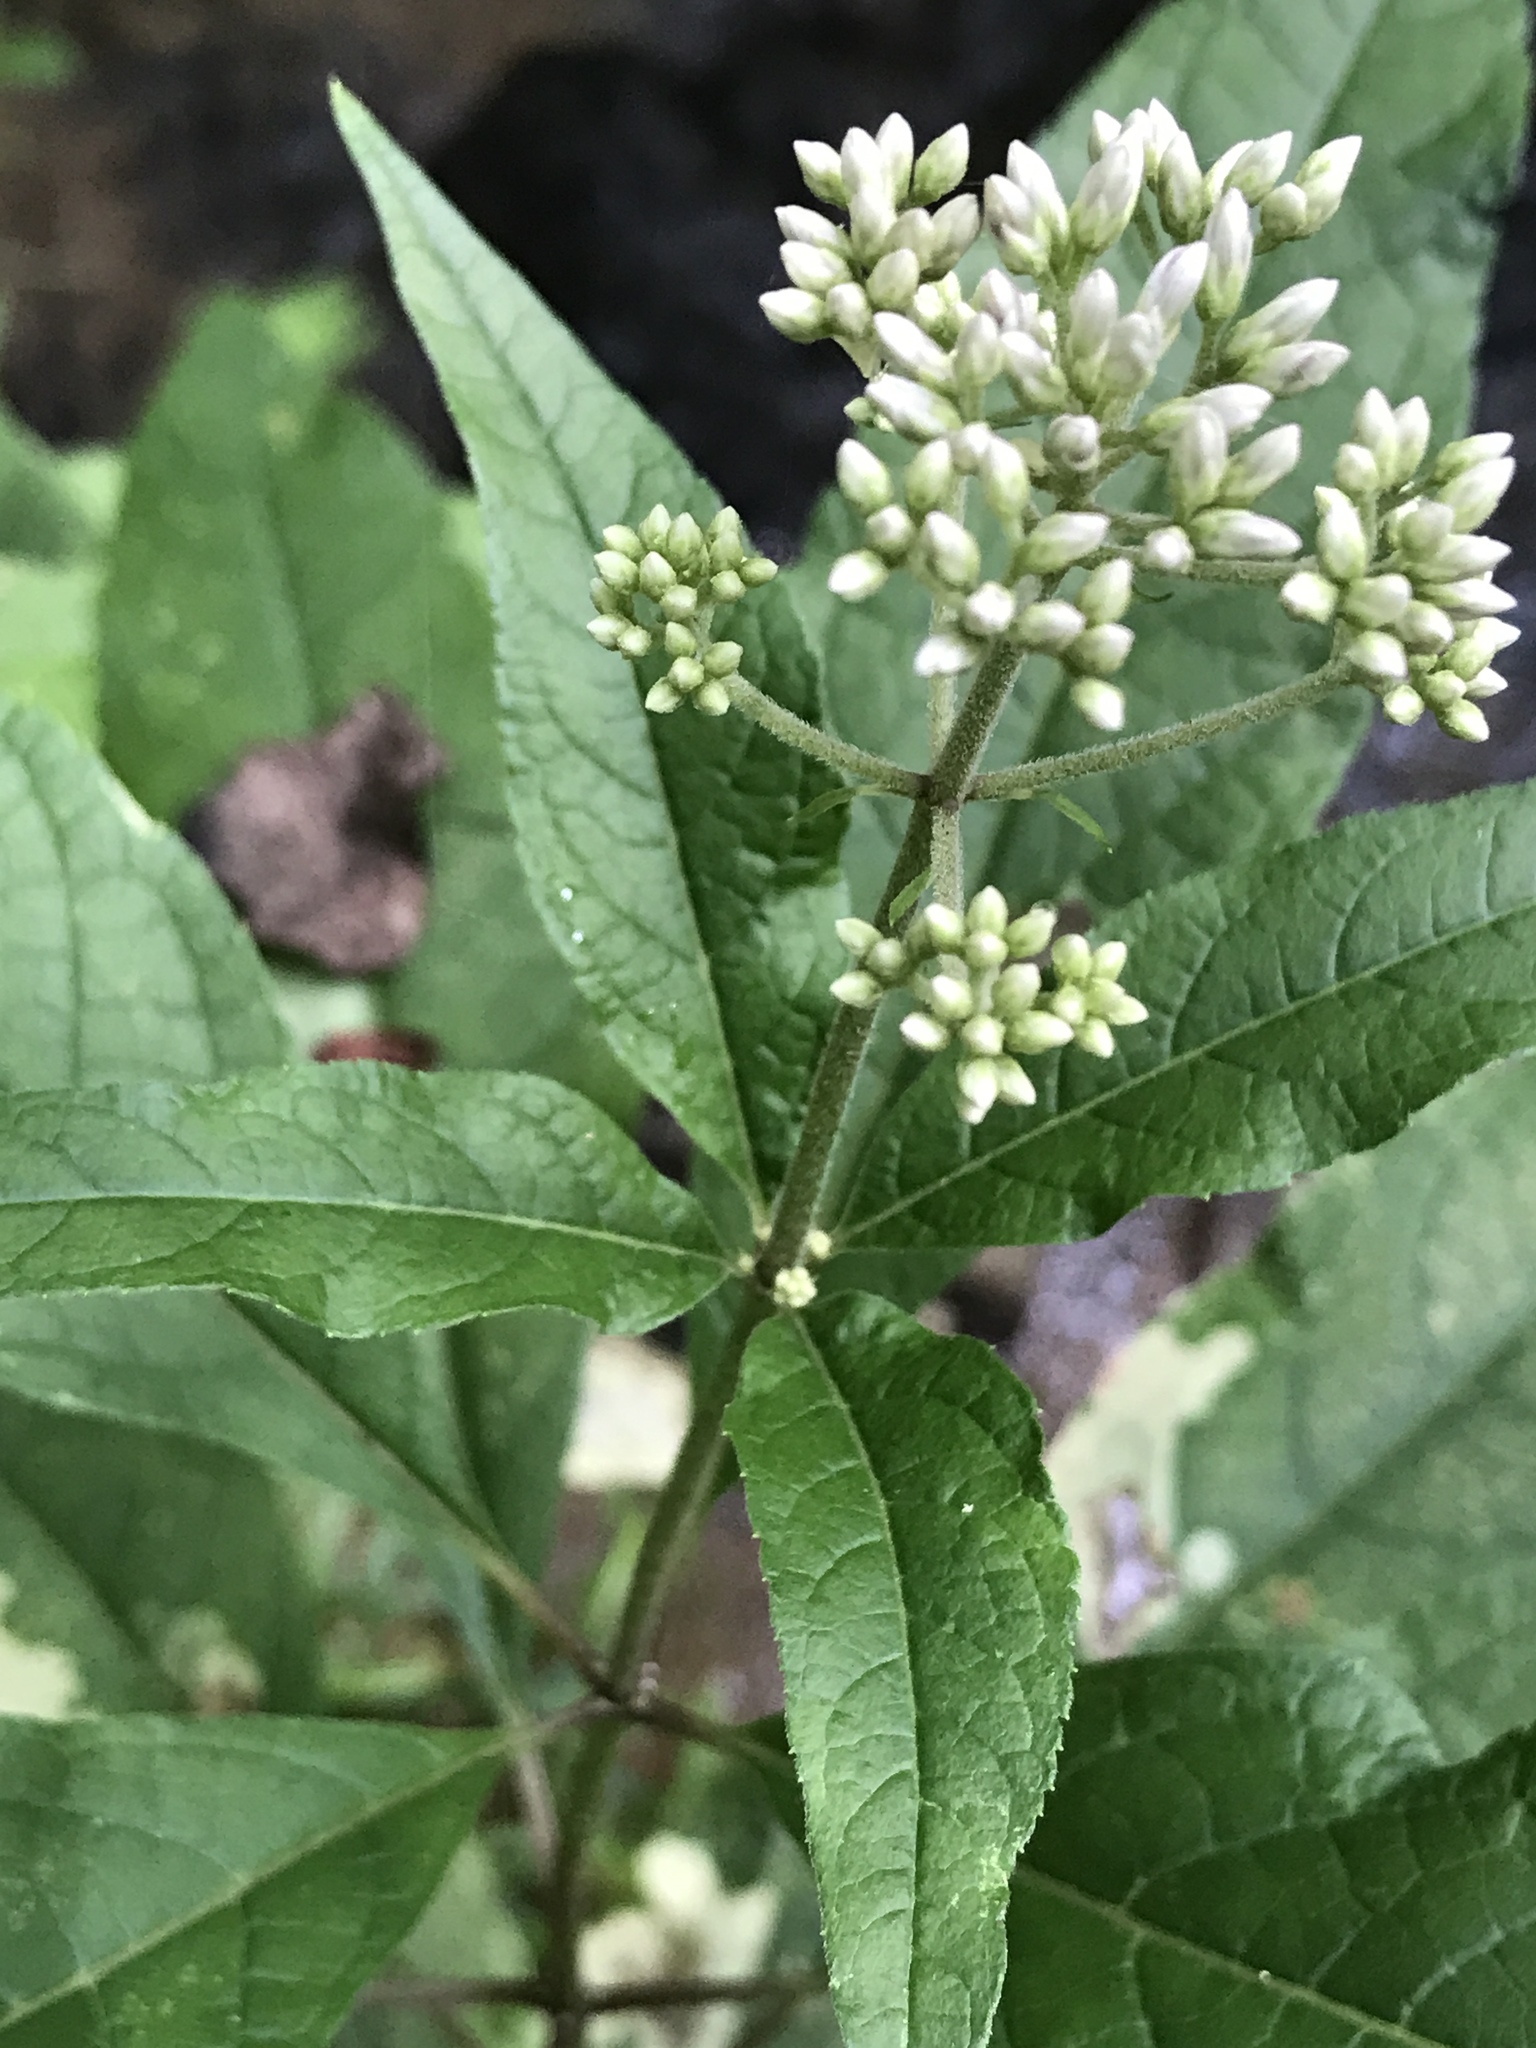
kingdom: Plantae
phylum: Tracheophyta
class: Magnoliopsida
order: Asterales
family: Asteraceae
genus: Eutrochium
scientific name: Eutrochium purpureum
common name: Gravelroot
